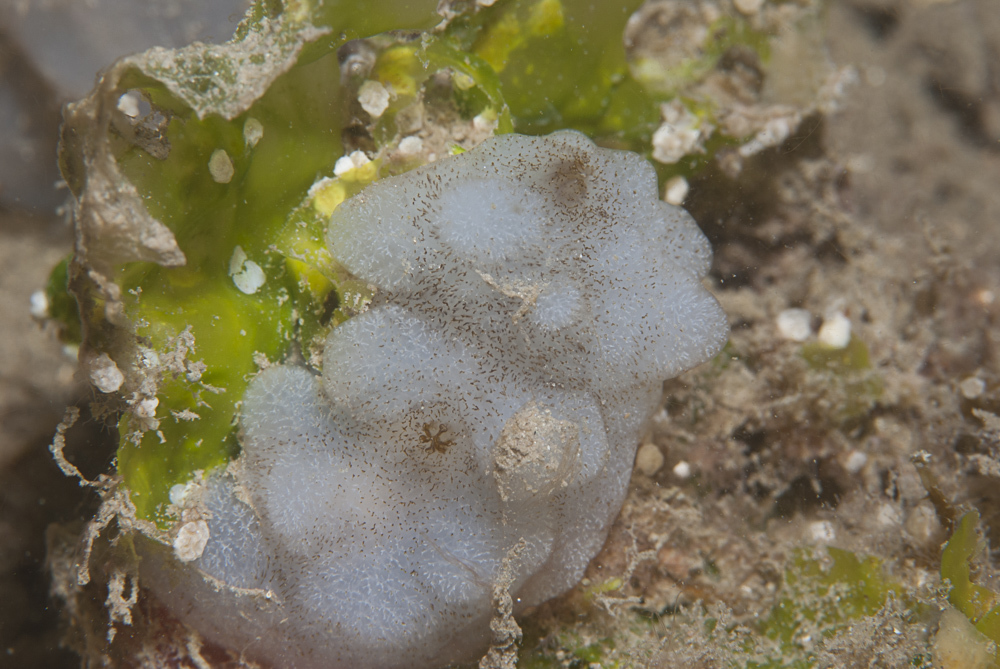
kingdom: Animalia
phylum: Chordata
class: Ascidiacea
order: Phlebobranchia
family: Ascidiidae
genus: Phallusia
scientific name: Phallusia mammillata
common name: Neptune's heart sea squirt
